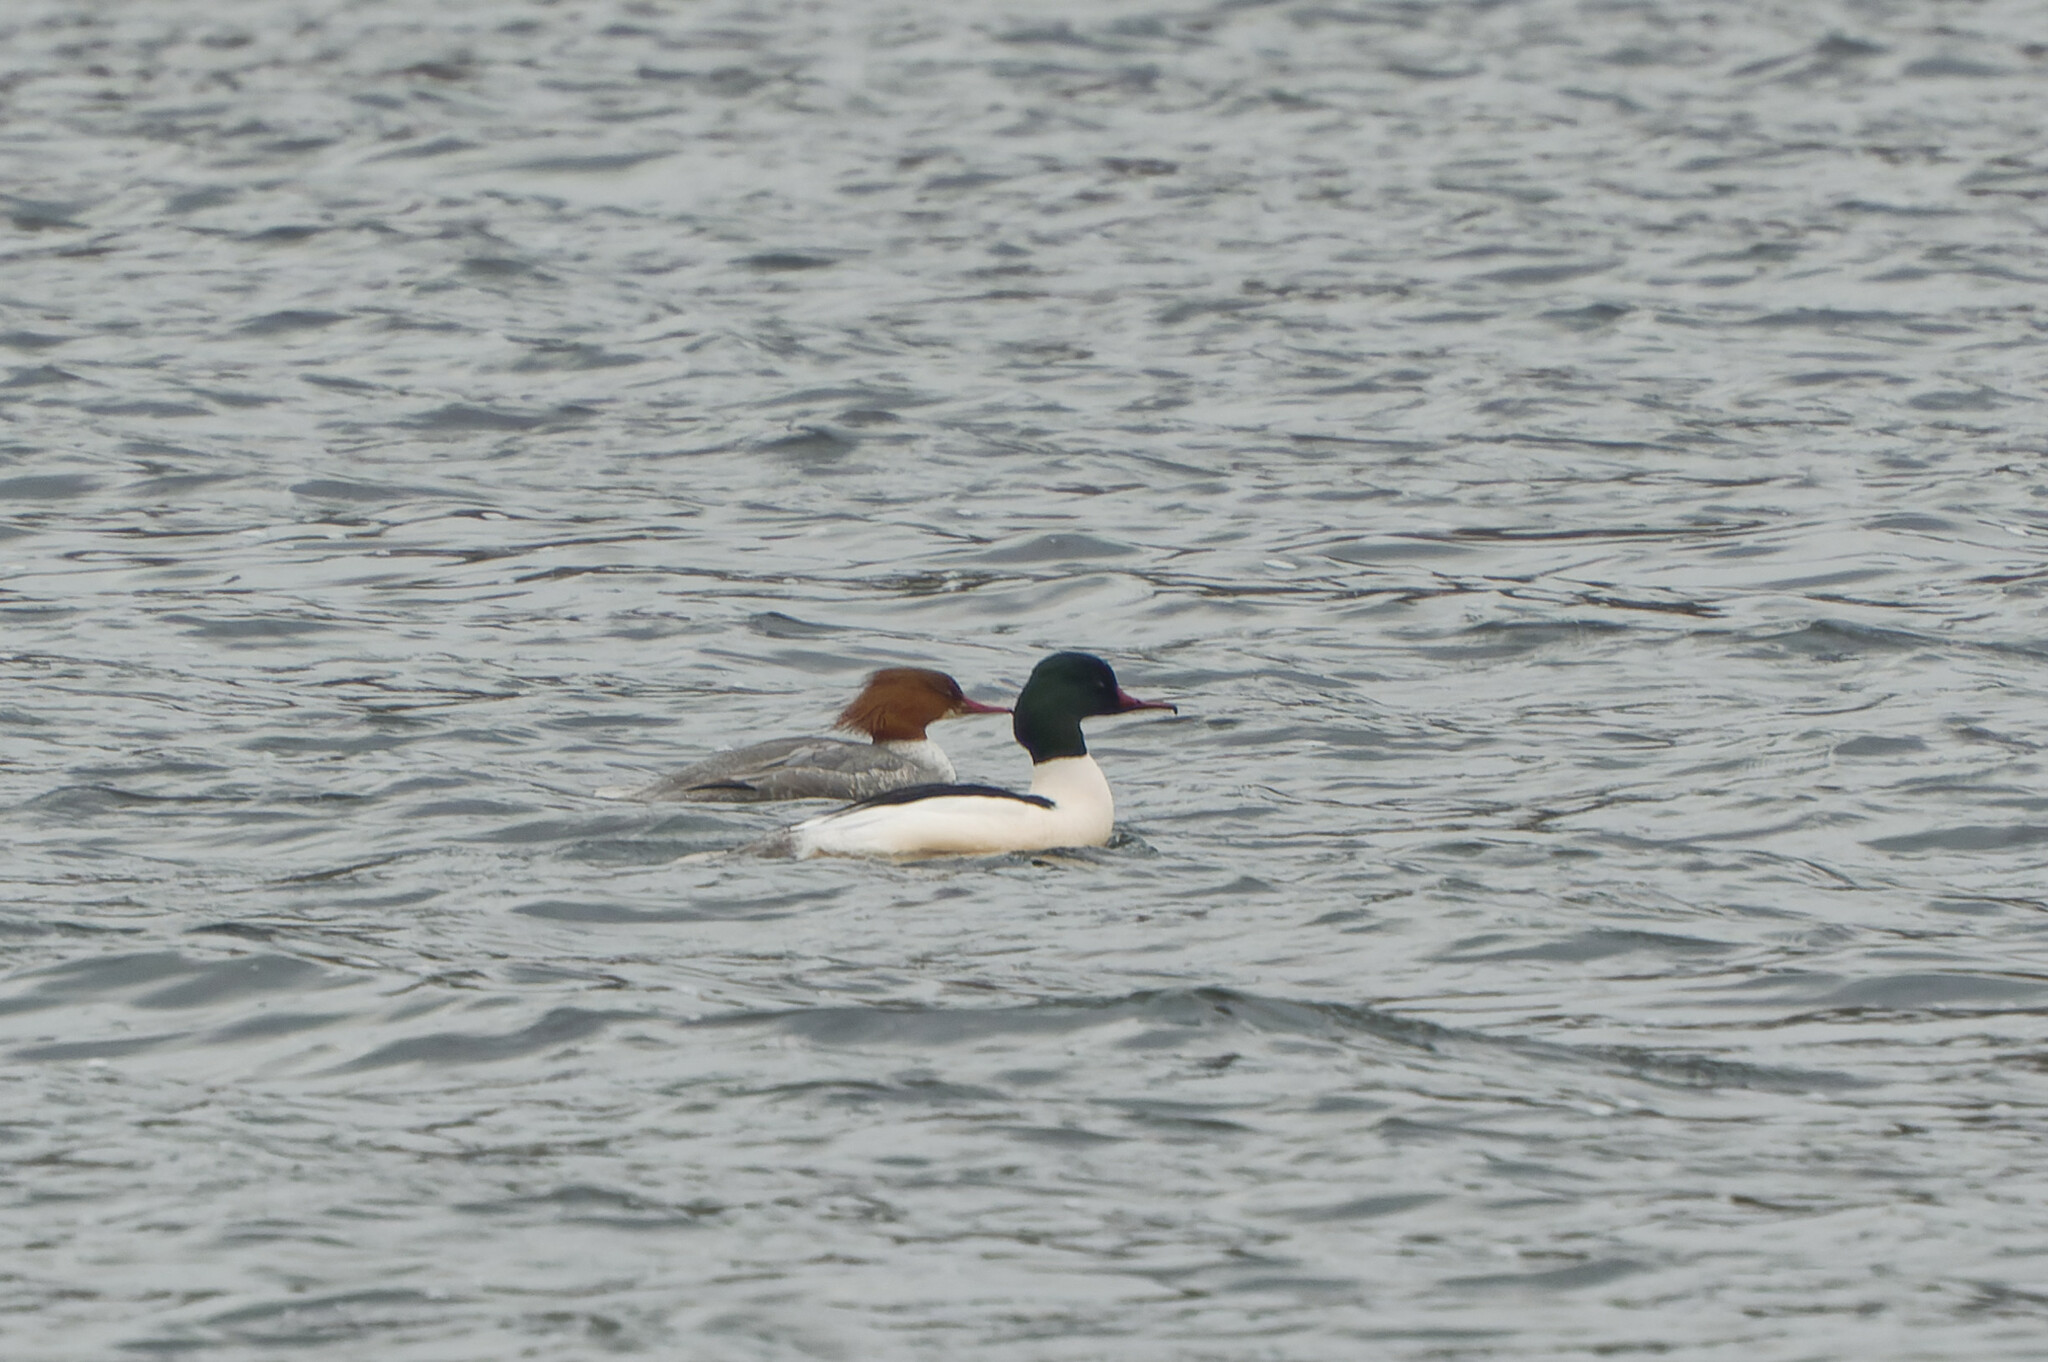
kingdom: Animalia
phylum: Chordata
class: Aves
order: Anseriformes
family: Anatidae
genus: Mergus
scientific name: Mergus merganser
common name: Common merganser
